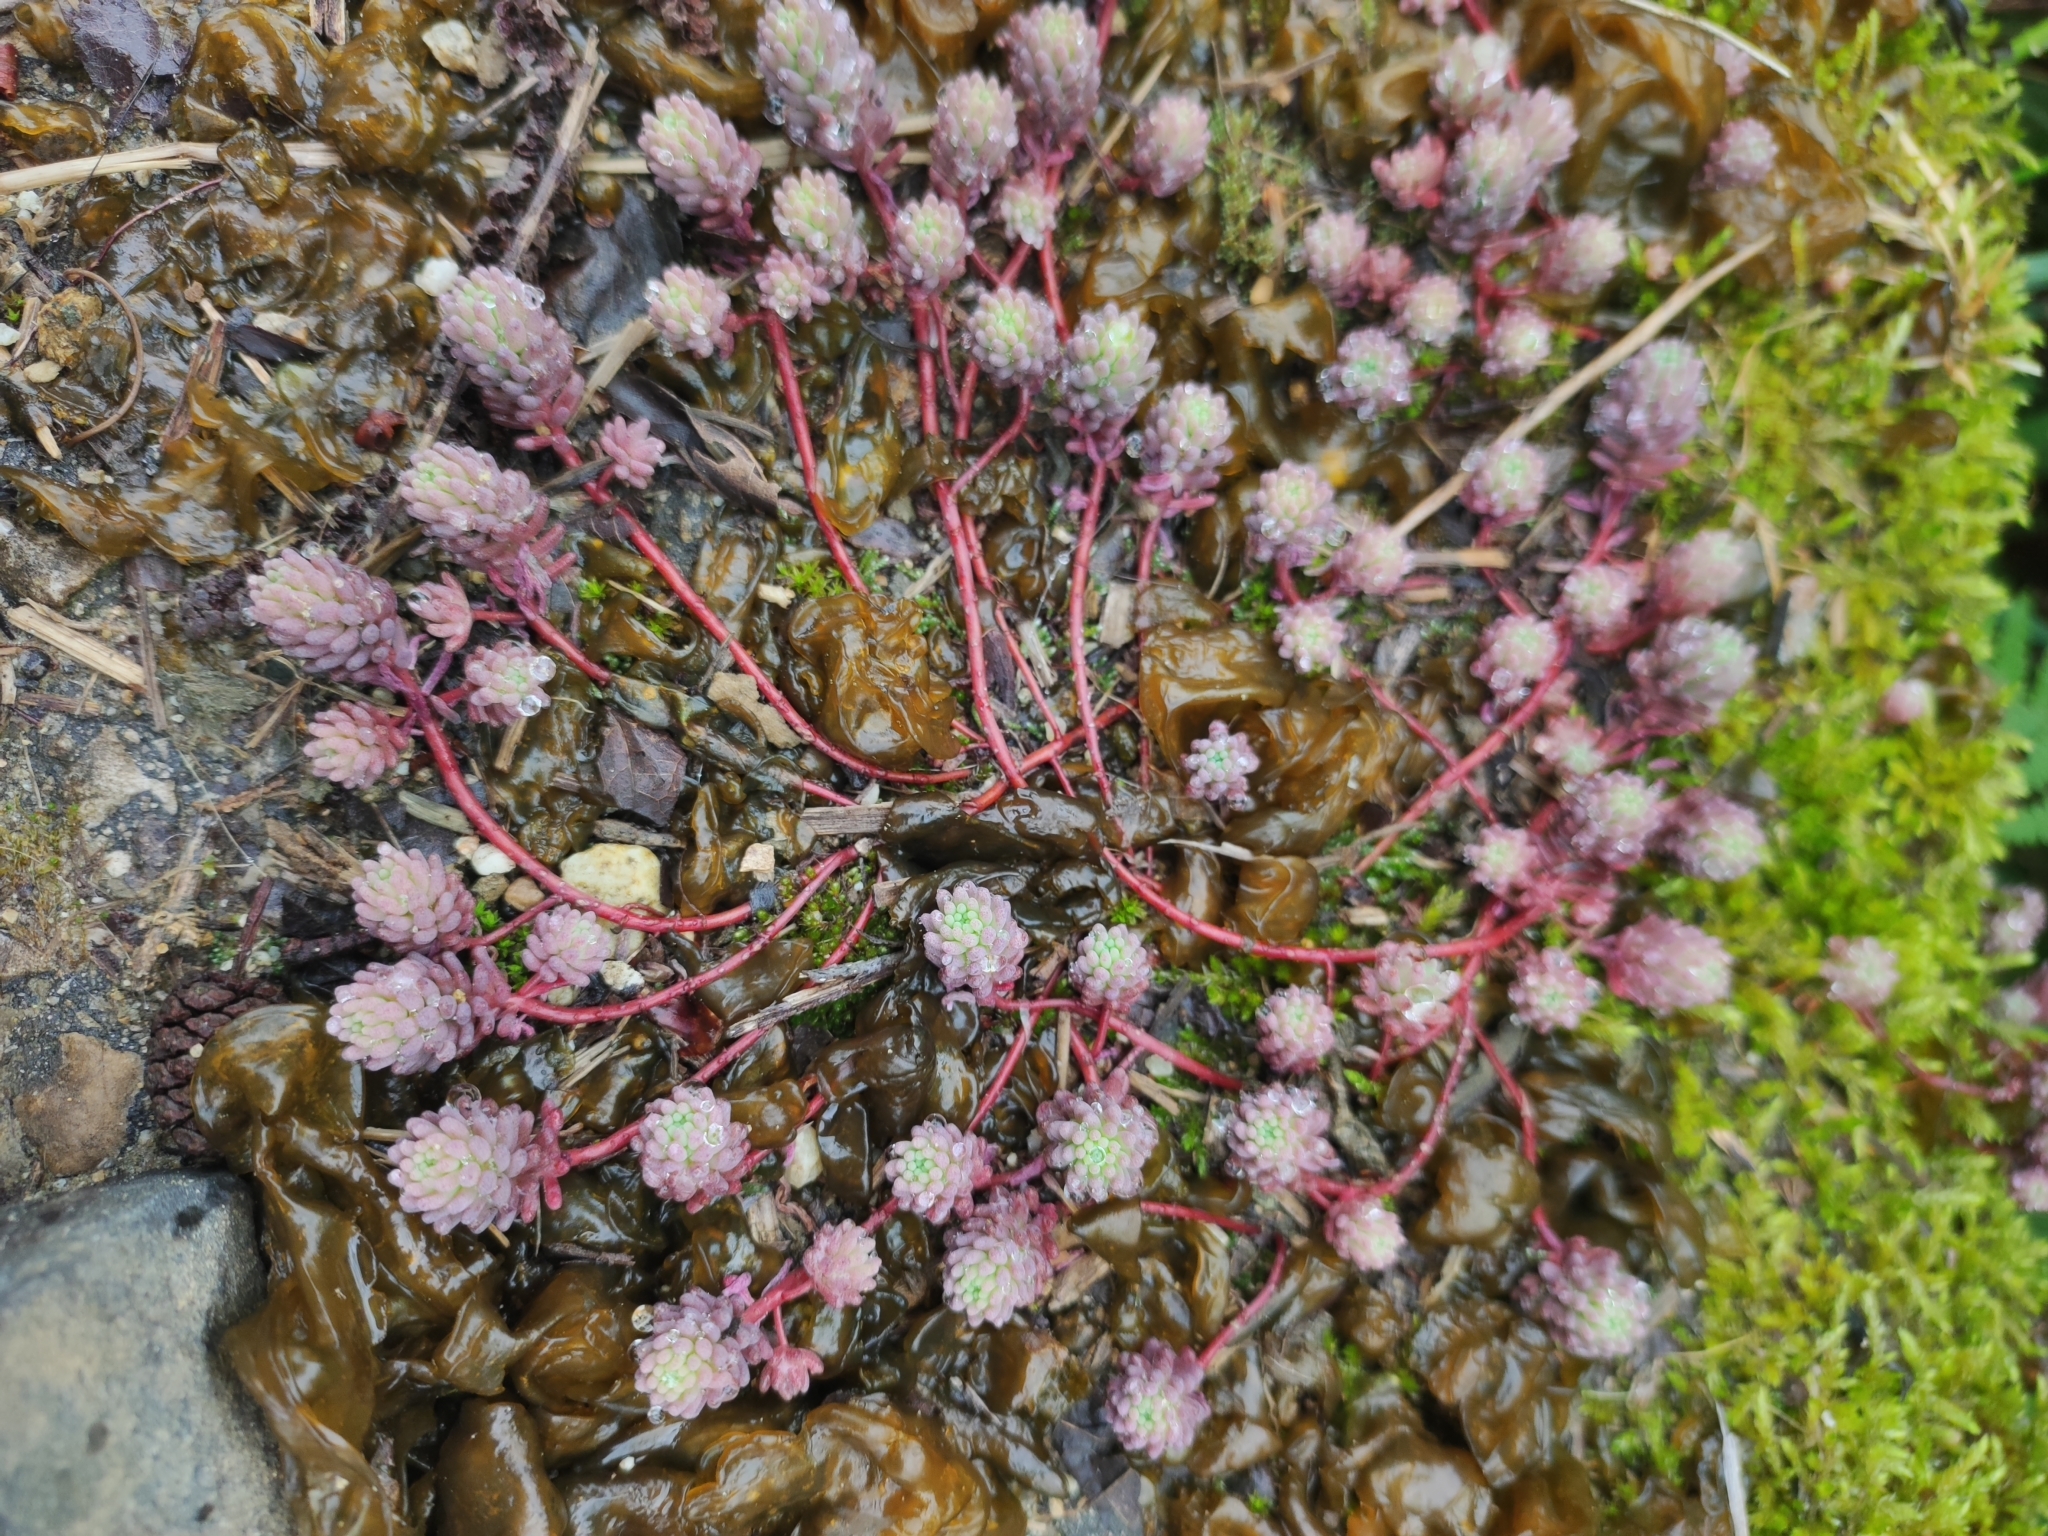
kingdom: Plantae
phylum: Tracheophyta
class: Magnoliopsida
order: Saxifragales
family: Crassulaceae
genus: Sedum
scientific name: Sedum pallidum
